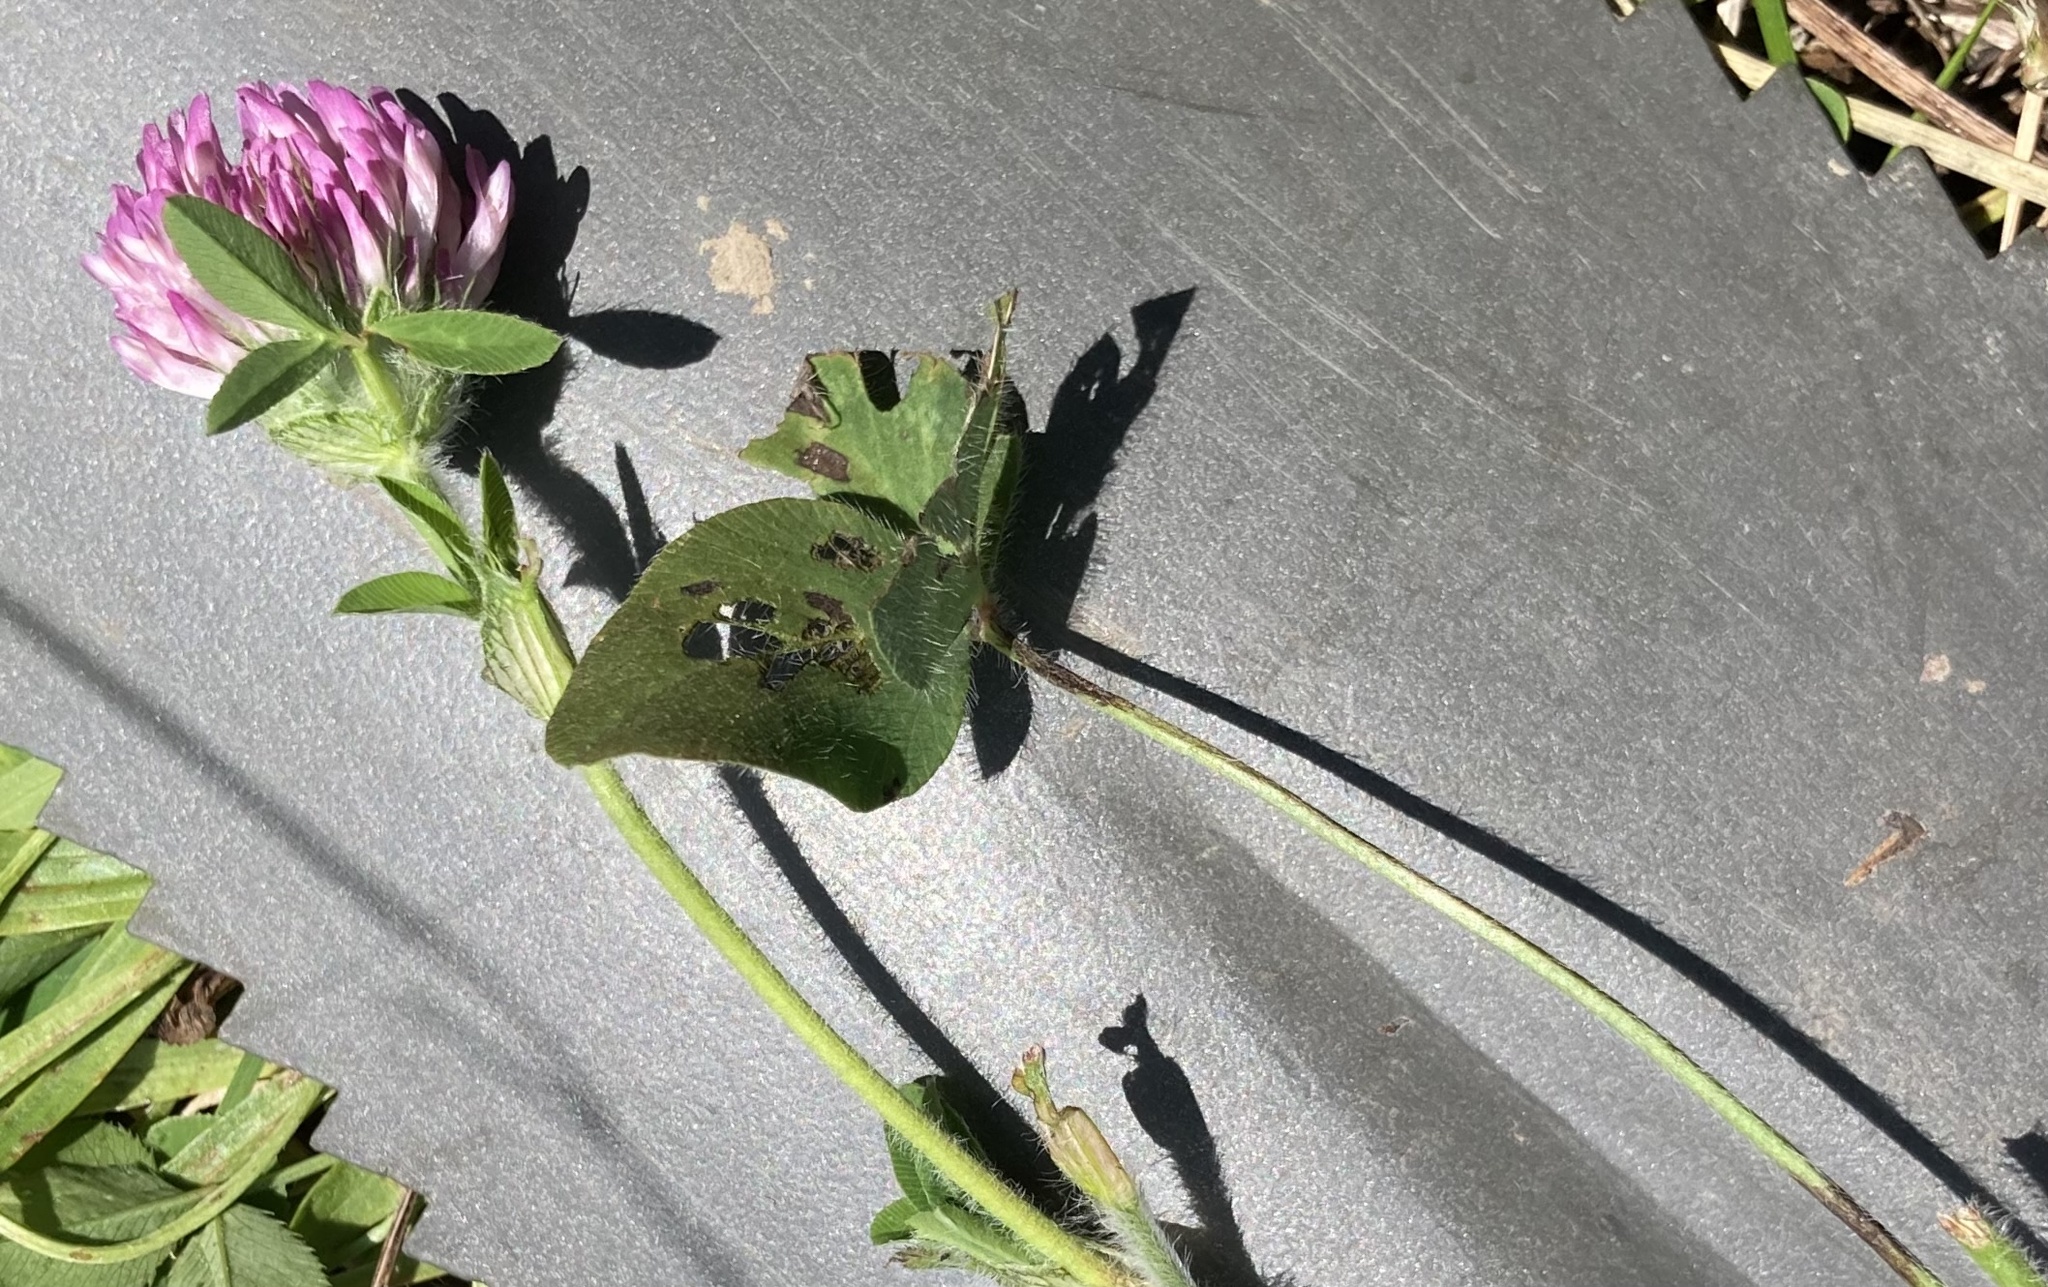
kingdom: Plantae
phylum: Tracheophyta
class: Magnoliopsida
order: Fabales
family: Fabaceae
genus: Trifolium
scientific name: Trifolium pratense
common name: Red clover
